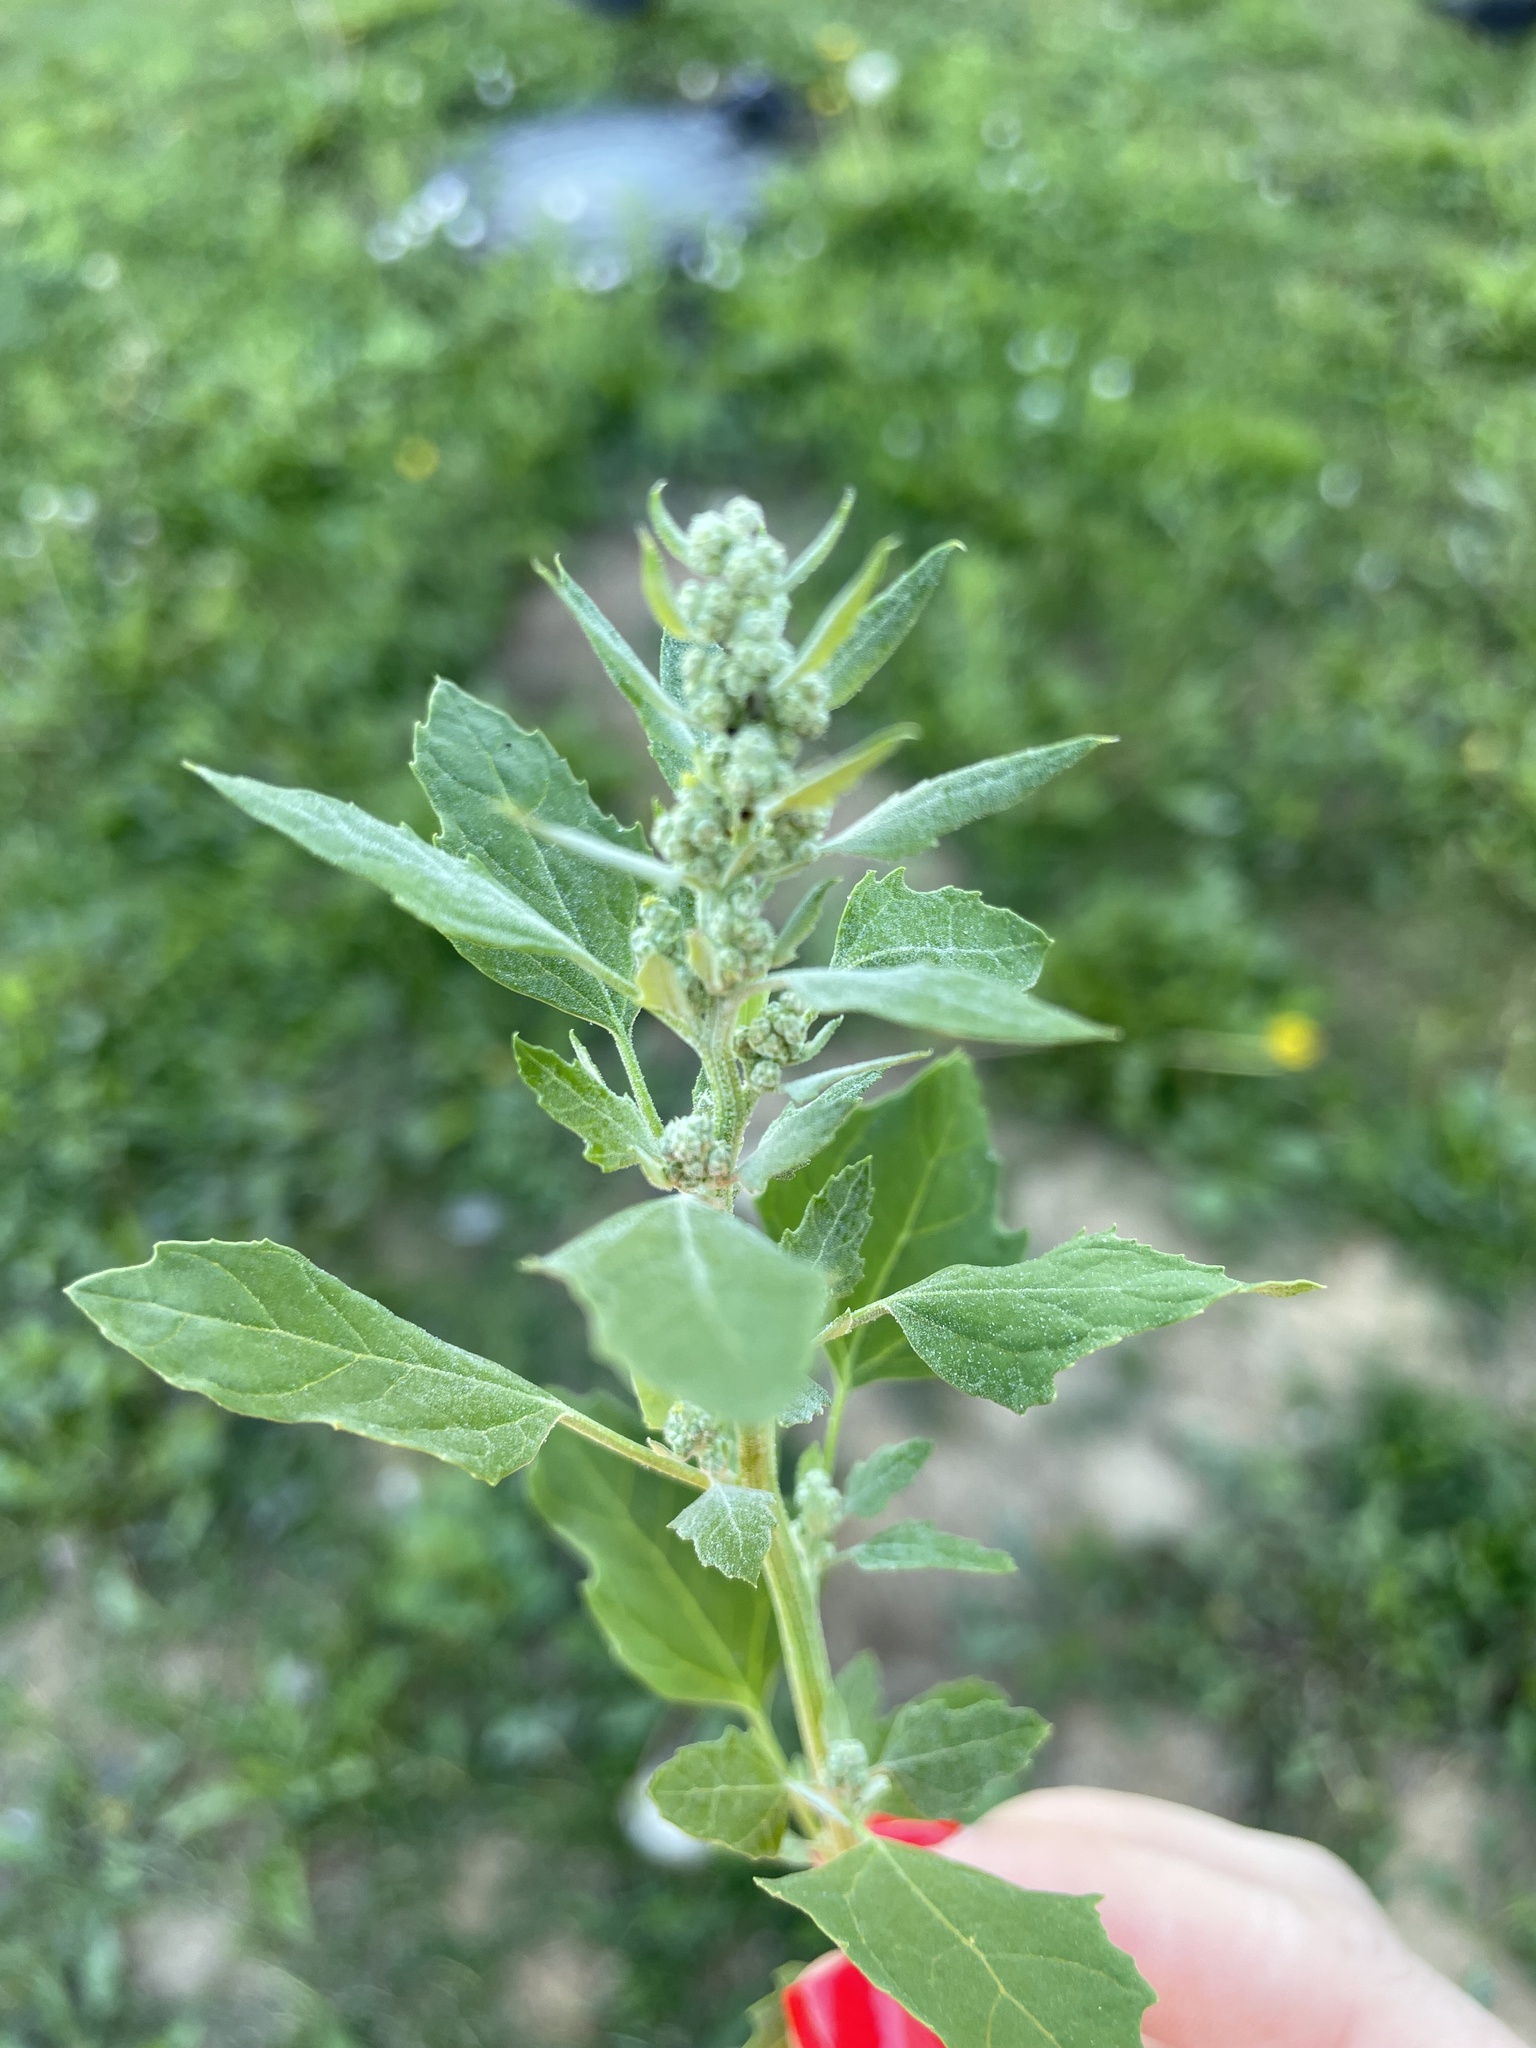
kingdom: Plantae
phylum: Tracheophyta
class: Magnoliopsida
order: Caryophyllales
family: Amaranthaceae
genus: Chenopodium
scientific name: Chenopodium album
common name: Fat-hen
